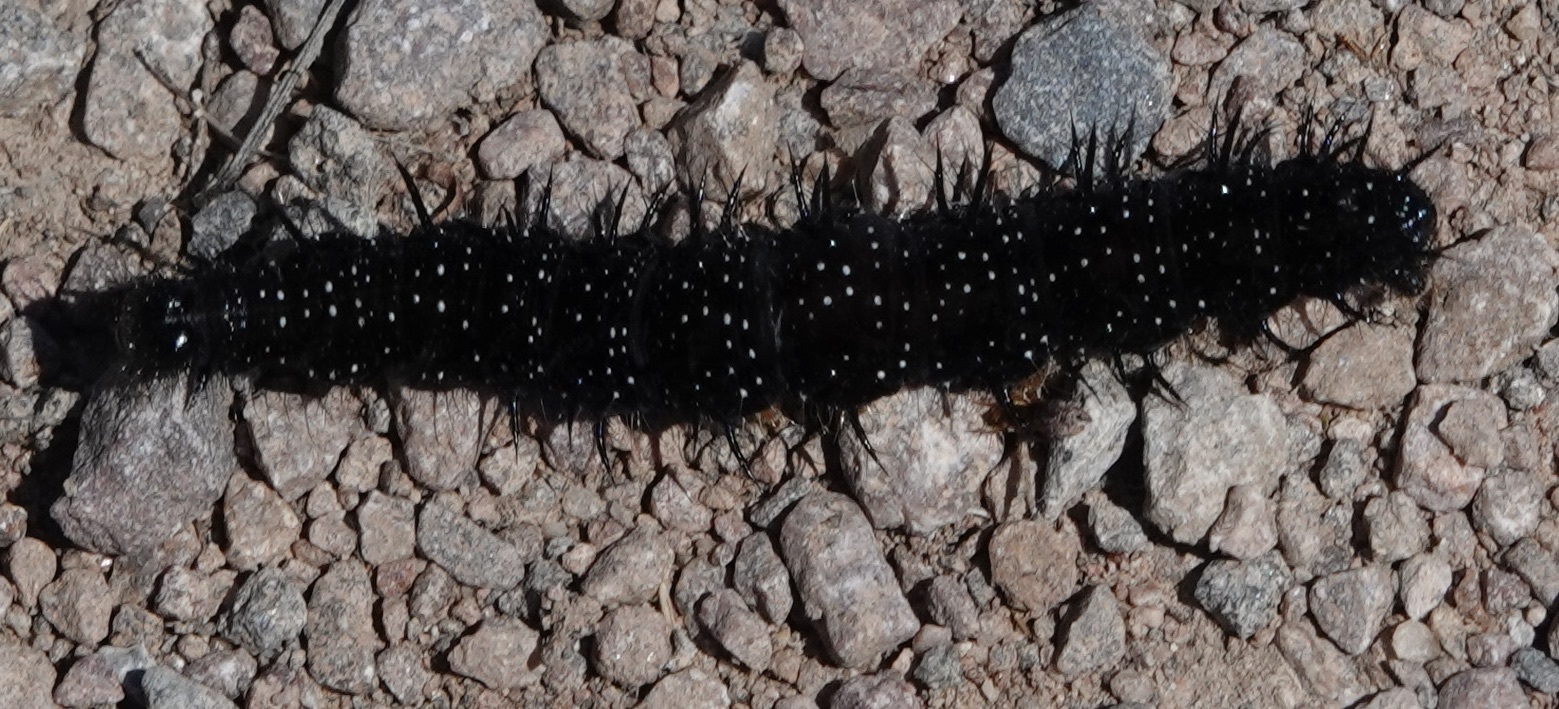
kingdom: Animalia
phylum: Arthropoda
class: Insecta
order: Lepidoptera
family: Nymphalidae
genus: Aglais
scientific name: Aglais io
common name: Peacock
